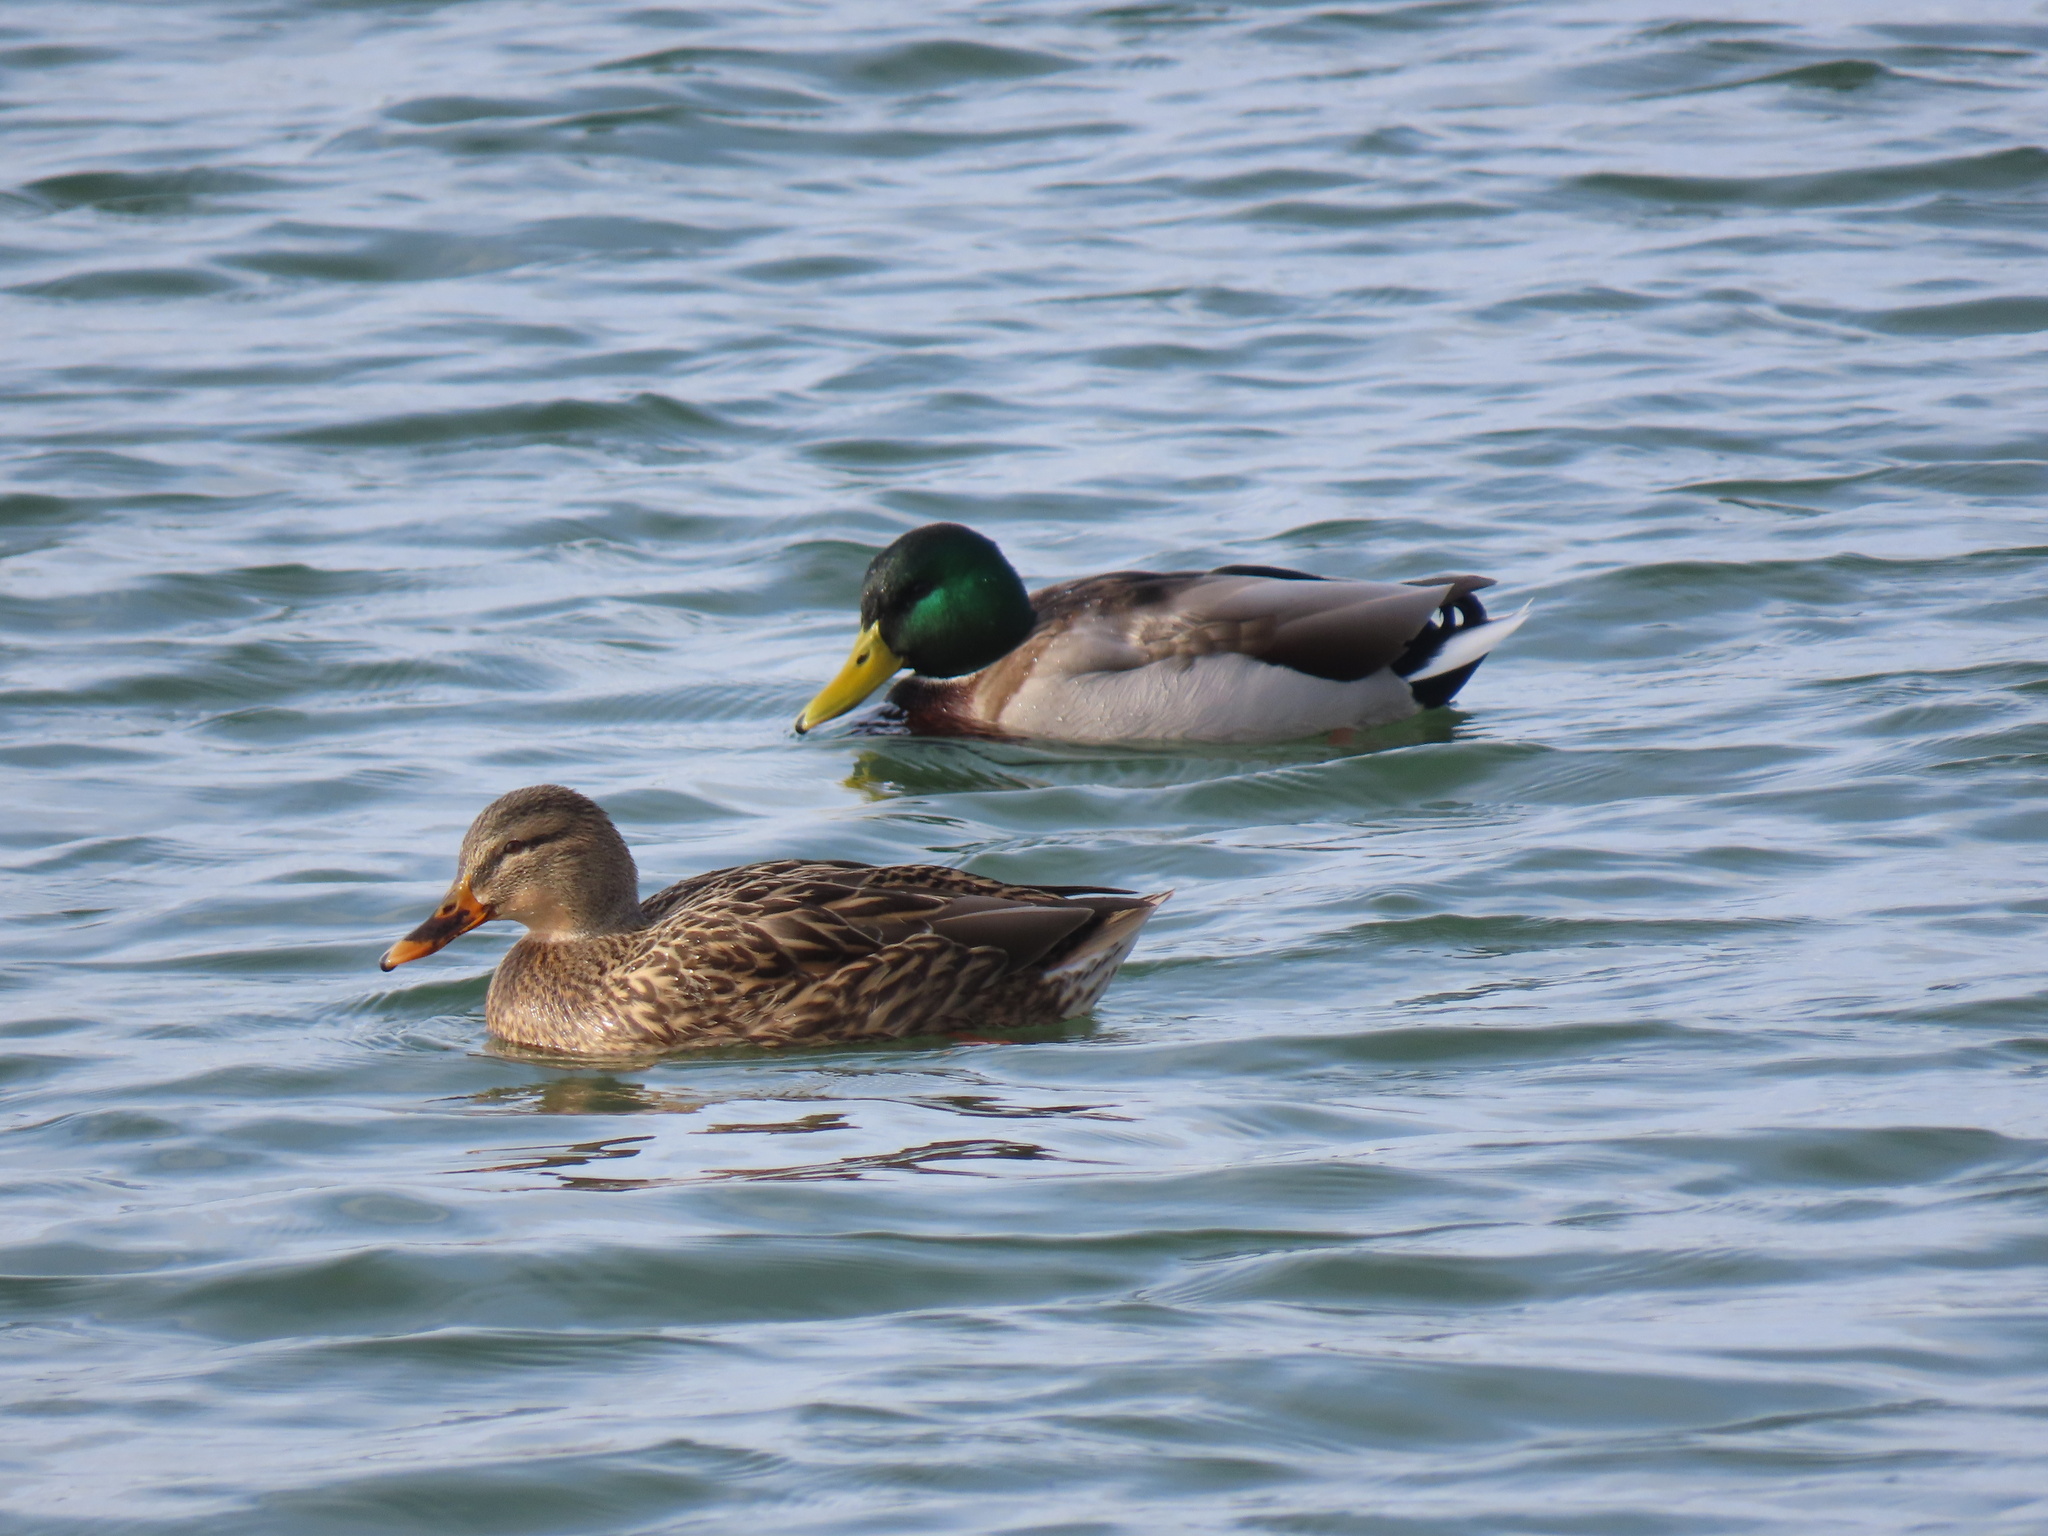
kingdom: Animalia
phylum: Chordata
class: Aves
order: Anseriformes
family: Anatidae
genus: Anas
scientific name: Anas platyrhynchos
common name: Mallard
